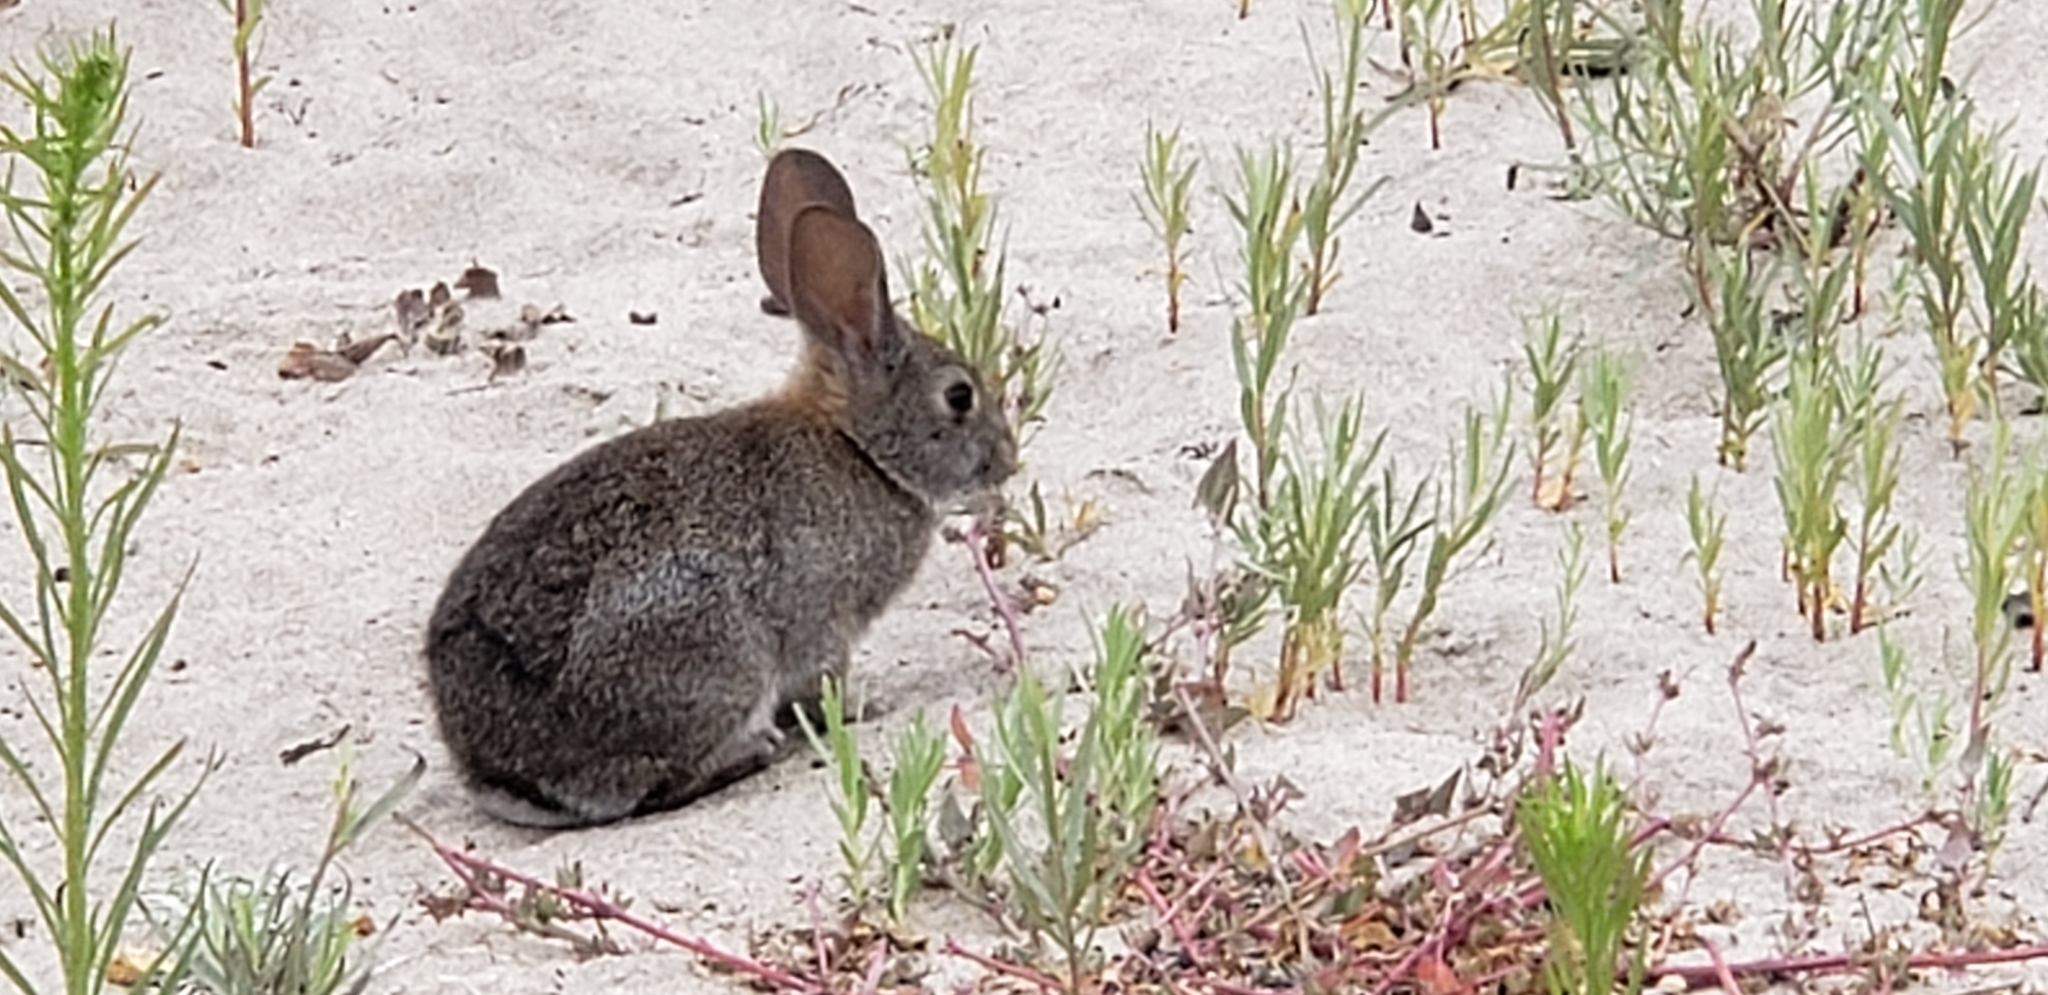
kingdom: Animalia
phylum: Chordata
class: Mammalia
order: Lagomorpha
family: Leporidae
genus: Sylvilagus
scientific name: Sylvilagus bachmani
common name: Brush rabbit
